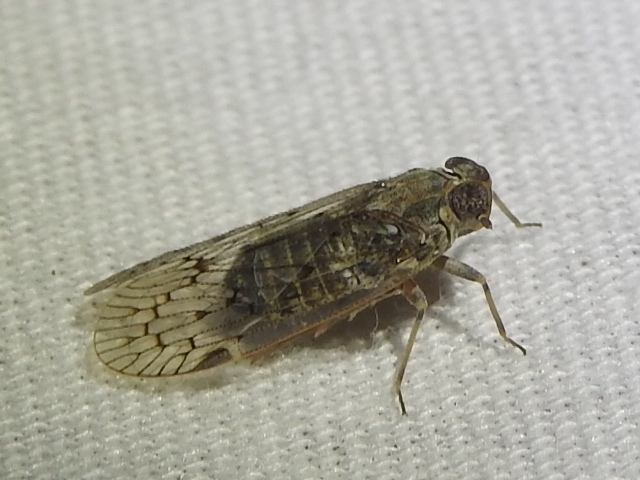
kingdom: Animalia
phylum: Arthropoda
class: Insecta
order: Hemiptera
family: Cixiidae
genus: Melanoliarus
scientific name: Melanoliarus aridus
